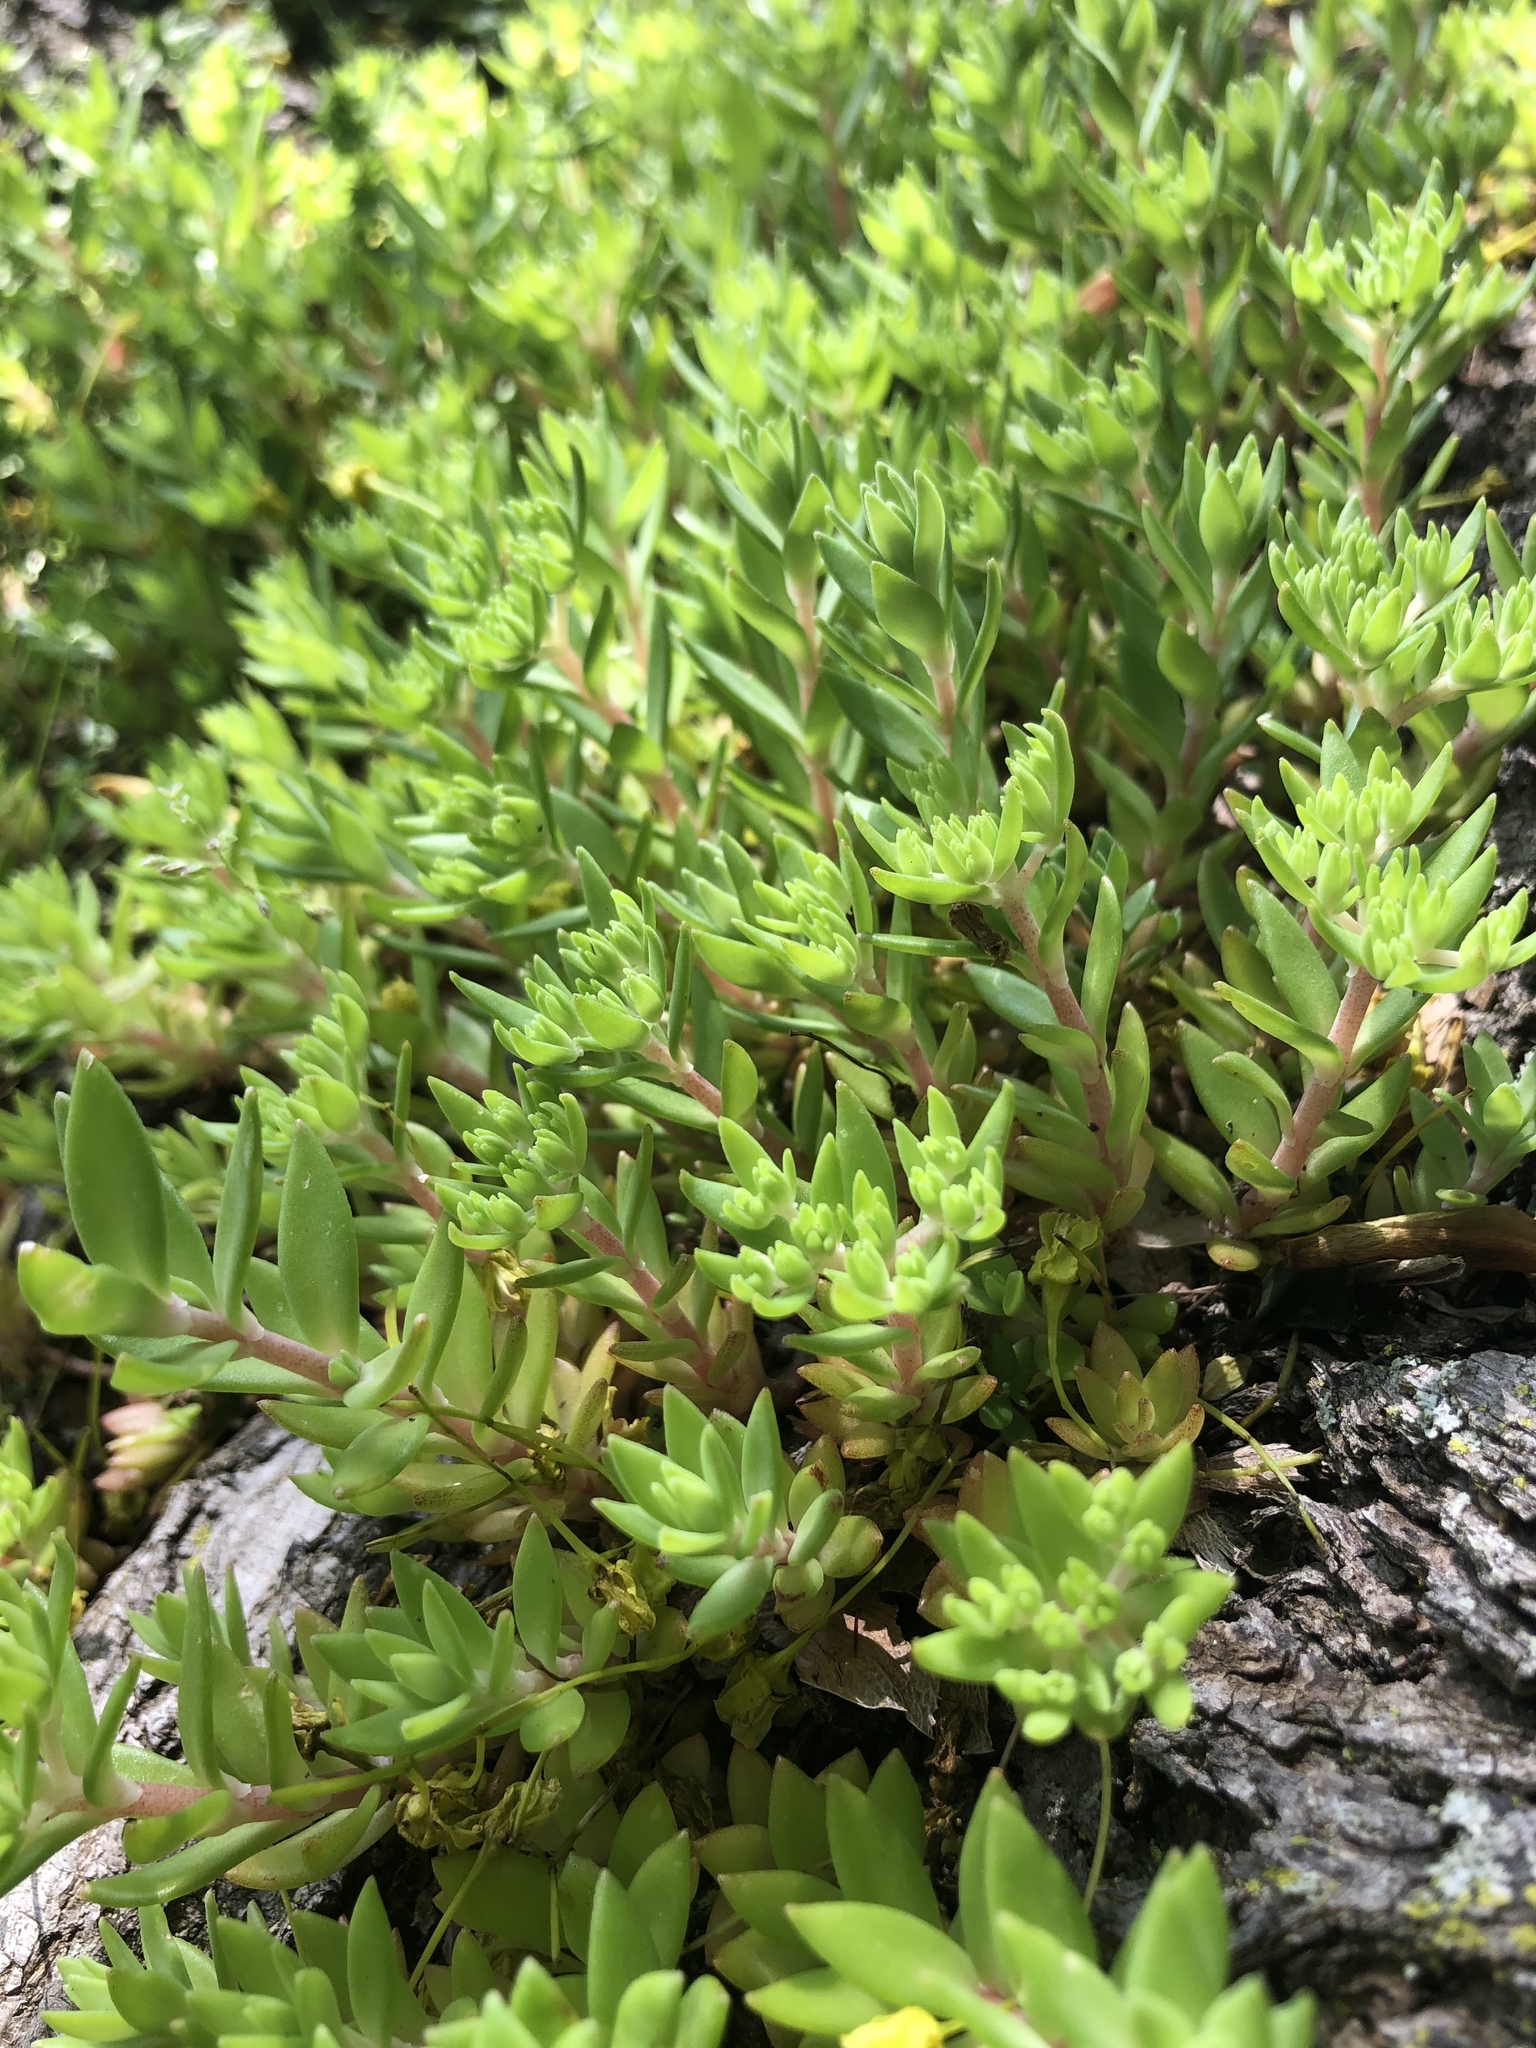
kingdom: Plantae
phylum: Tracheophyta
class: Magnoliopsida
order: Saxifragales
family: Crassulaceae
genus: Sedum
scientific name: Sedum sarmentosum
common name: Stringy stonecrop
